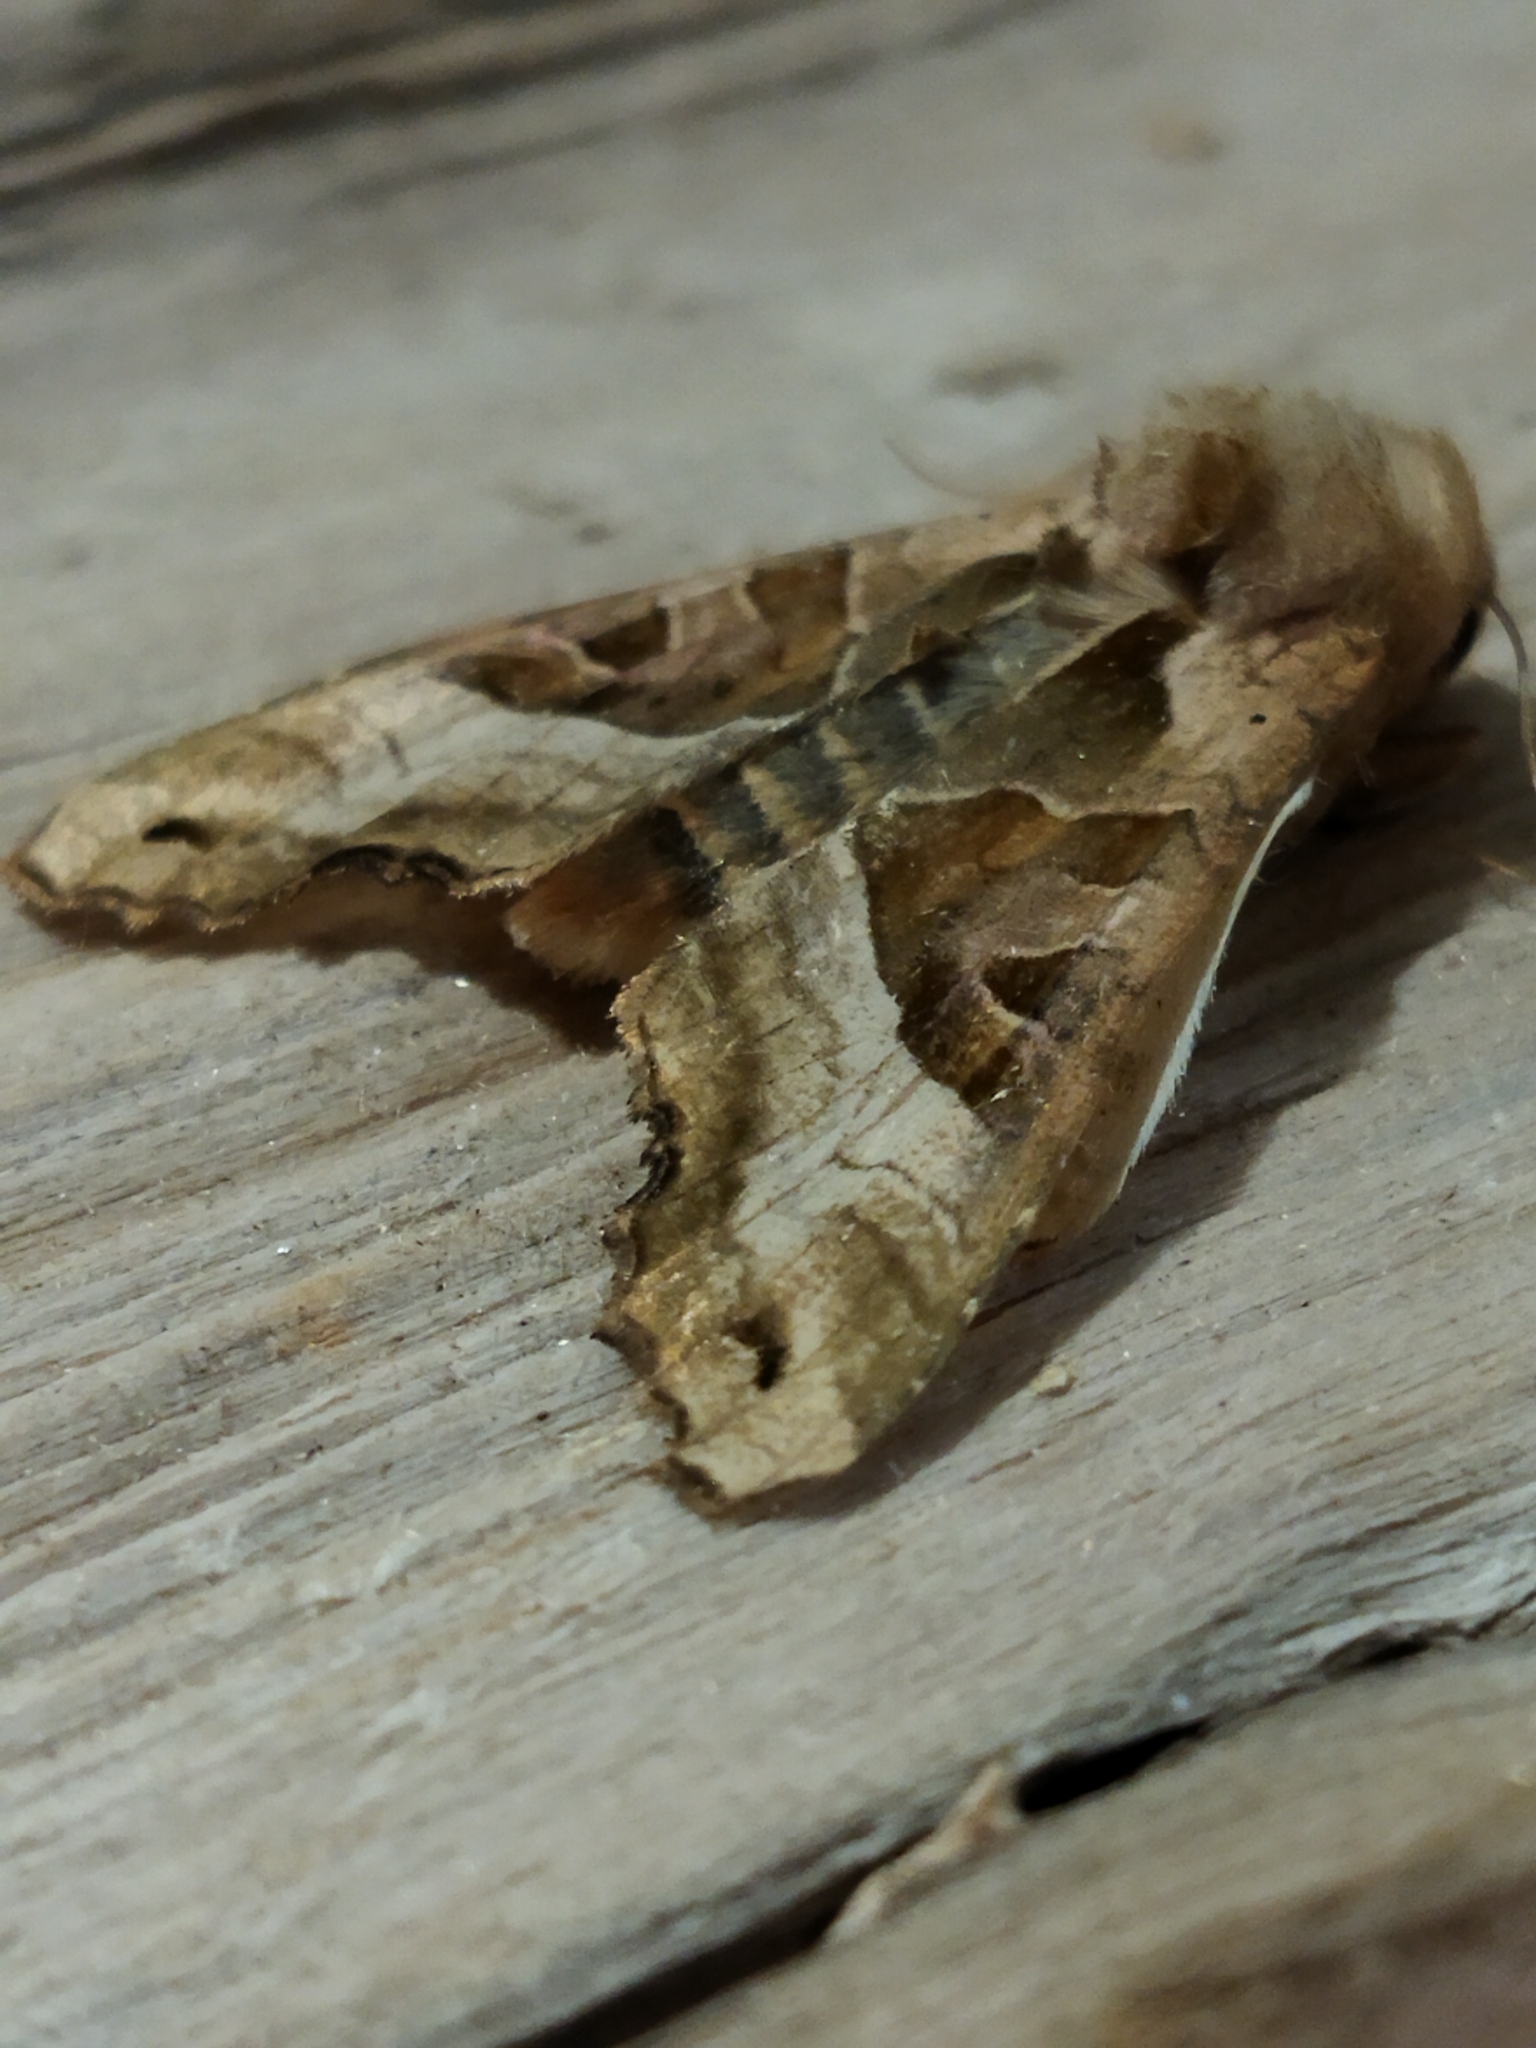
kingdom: Animalia
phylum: Arthropoda
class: Insecta
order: Lepidoptera
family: Noctuidae
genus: Phlogophora
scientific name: Phlogophora meticulosa
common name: Angle shades
